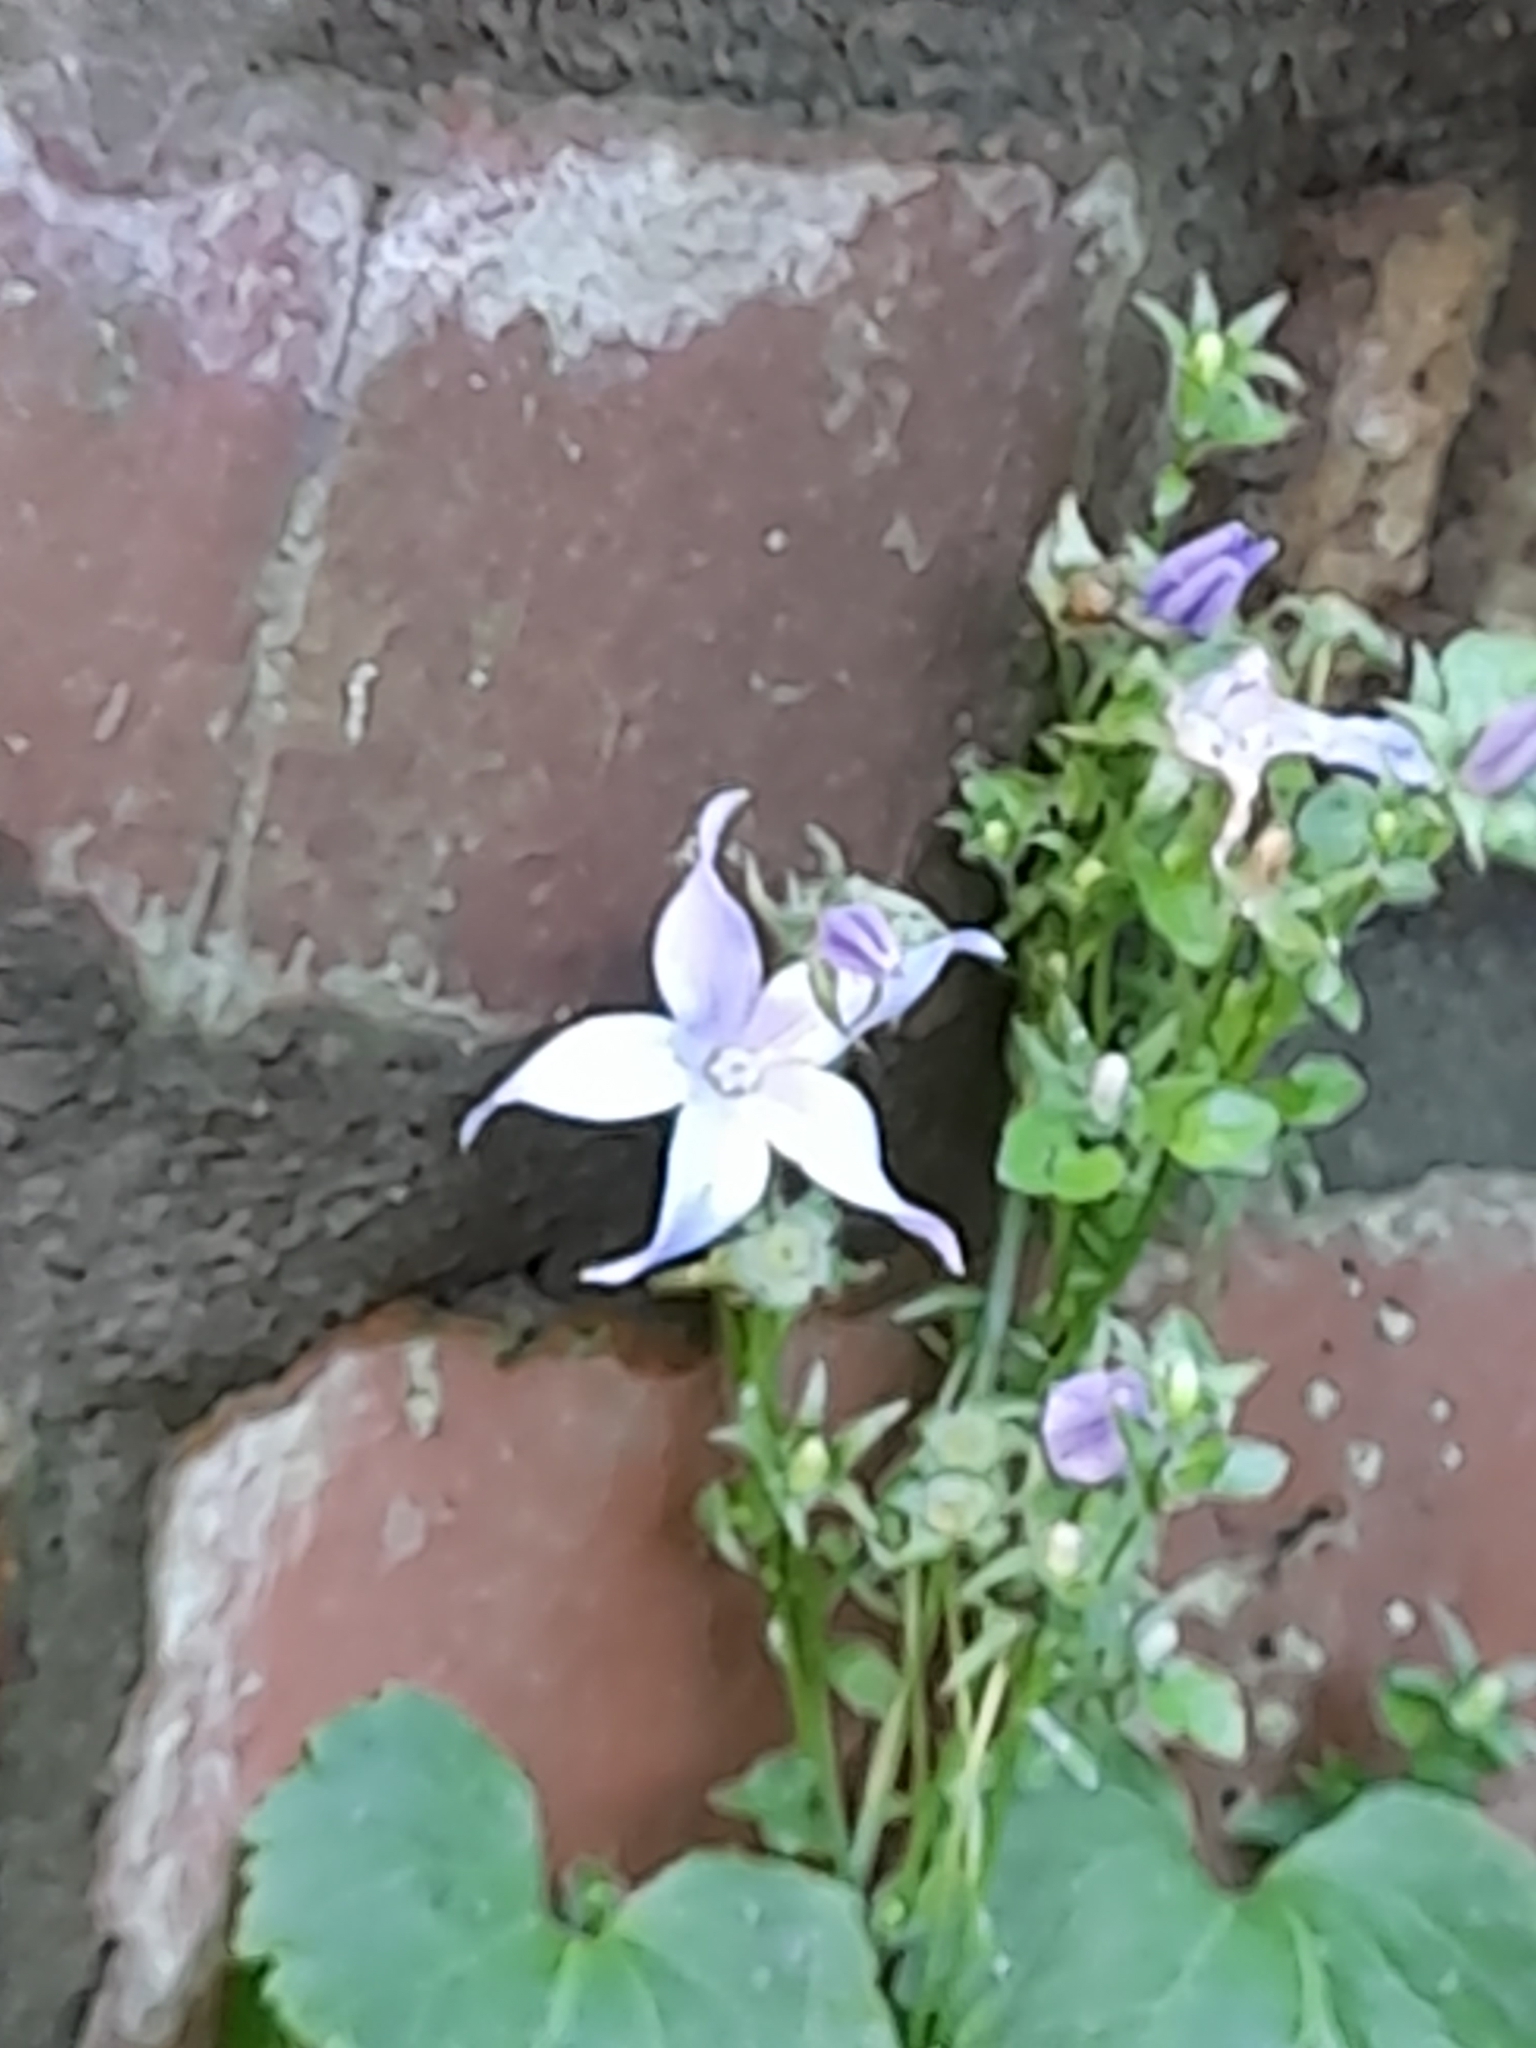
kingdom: Plantae
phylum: Tracheophyta
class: Magnoliopsida
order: Asterales
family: Campanulaceae
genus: Campanula
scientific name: Campanula poscharskyana
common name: Trailing bellflower
